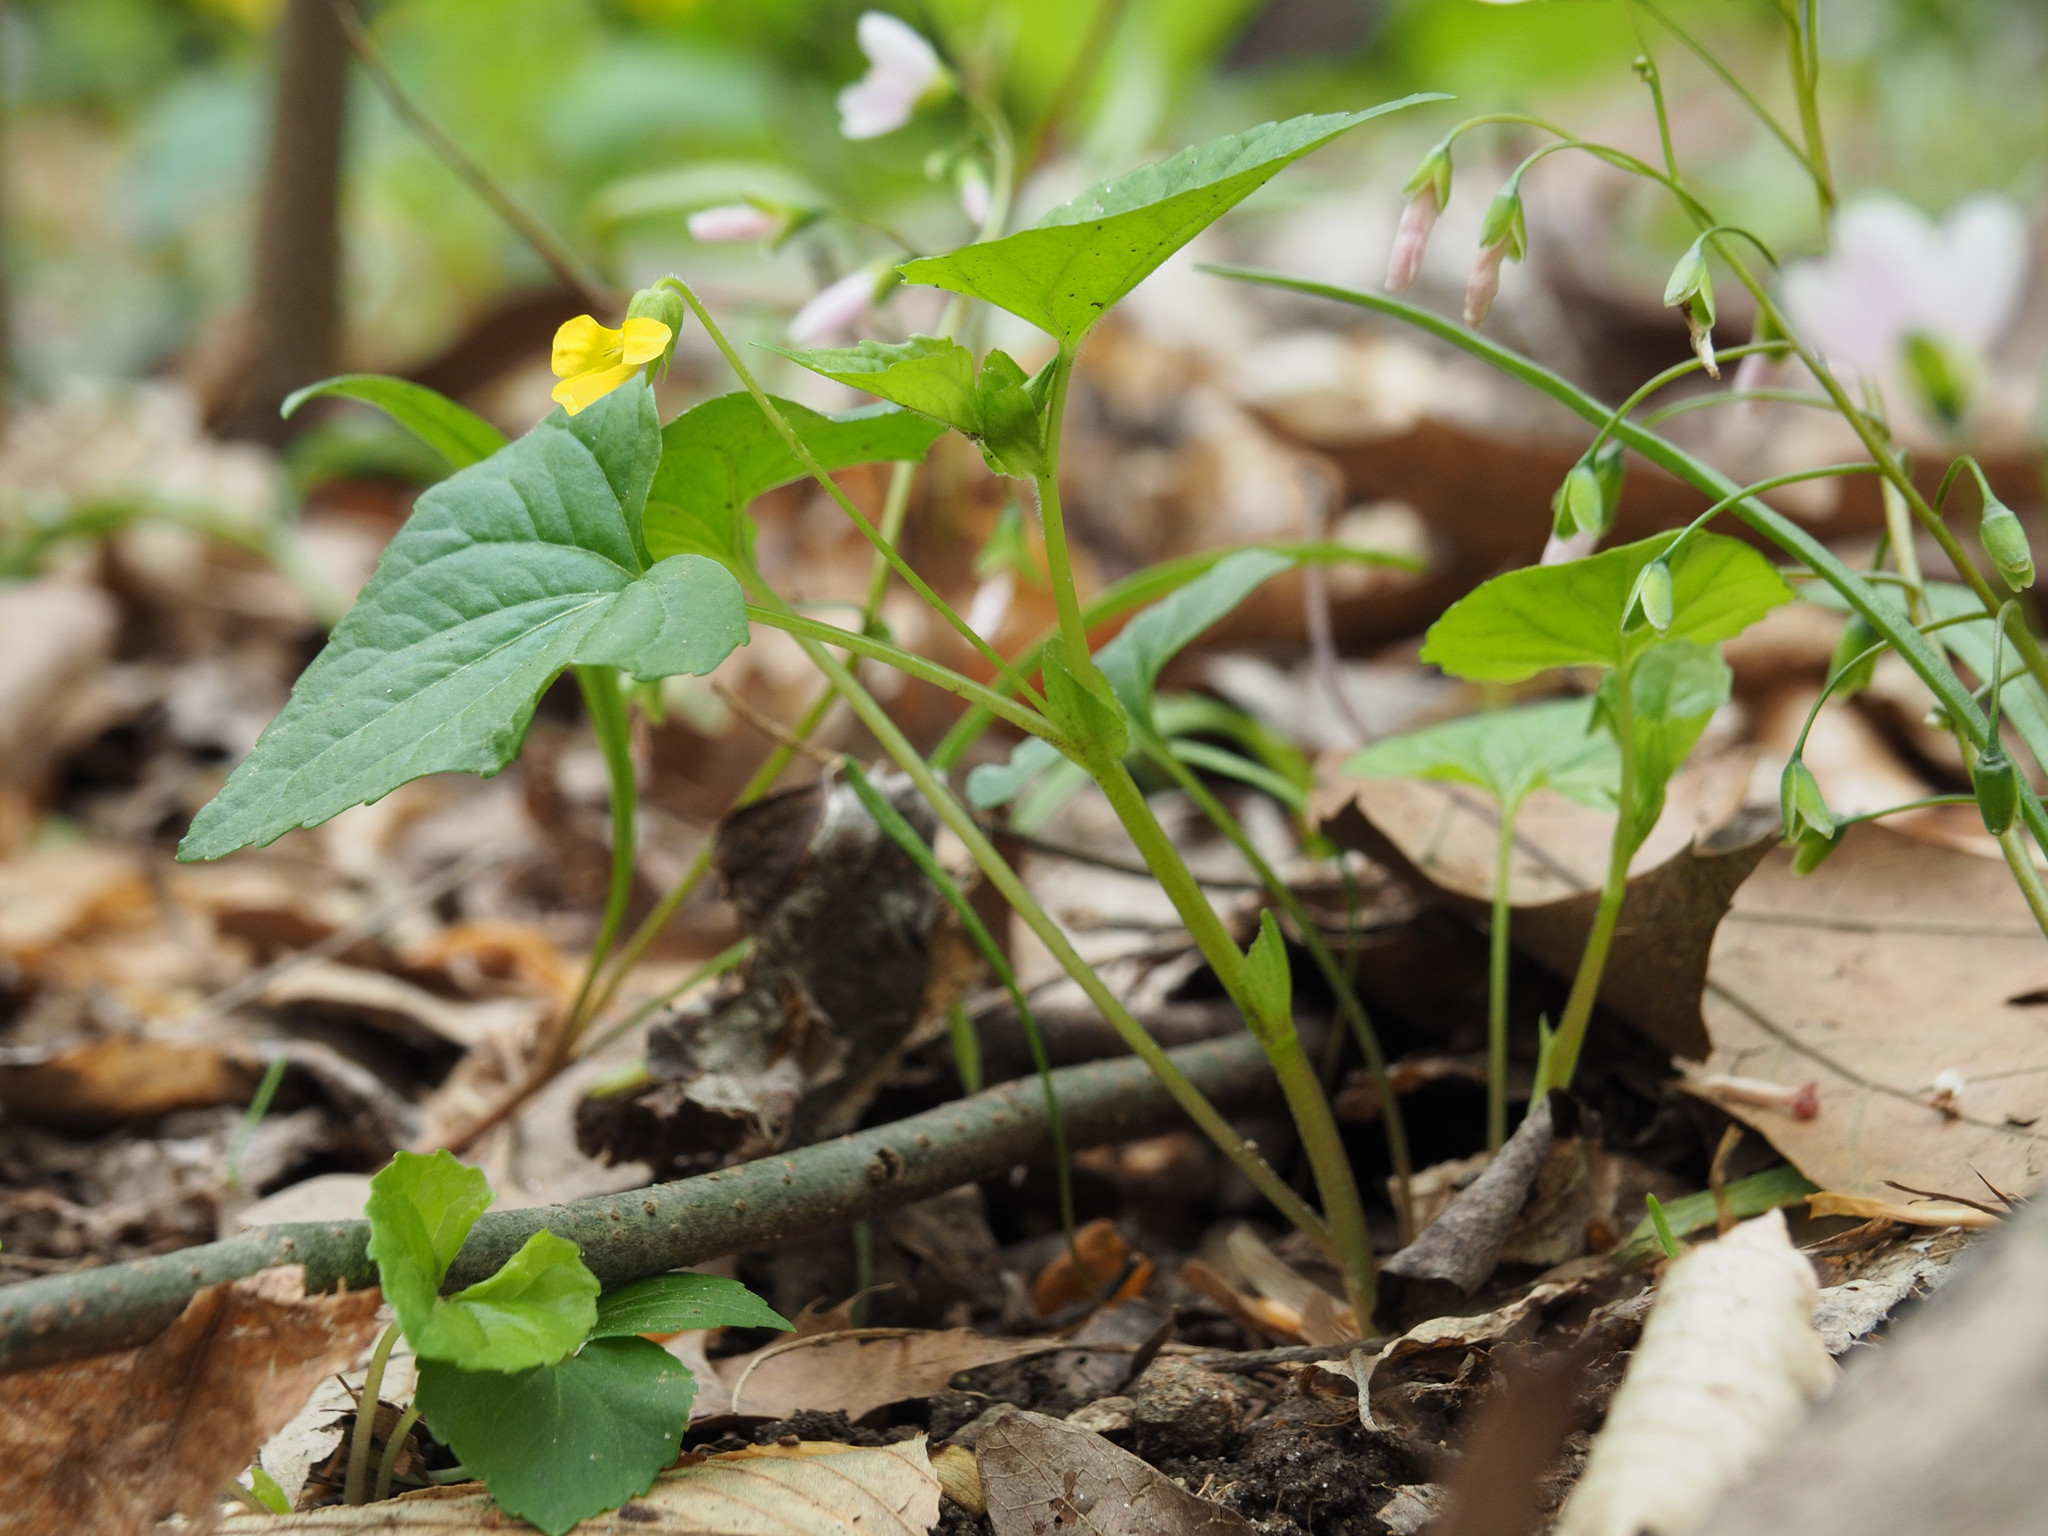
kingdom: Plantae
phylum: Tracheophyta
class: Magnoliopsida
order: Malpighiales
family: Violaceae
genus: Viola
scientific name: Viola eriocarpa
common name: Smooth yellow violet
